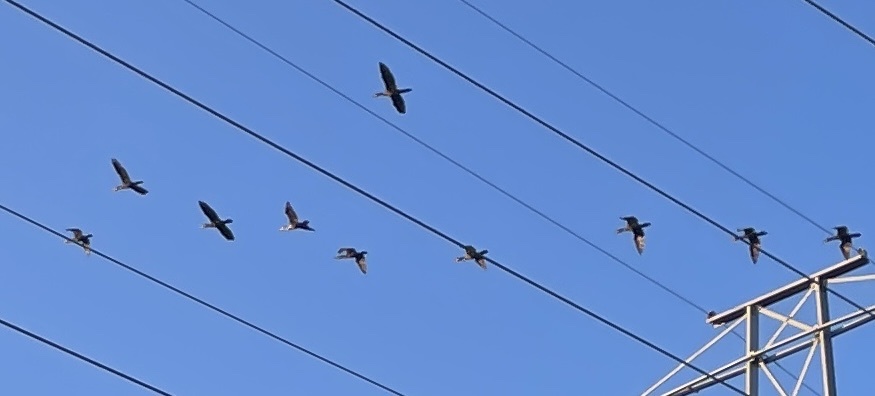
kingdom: Animalia
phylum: Chordata
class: Aves
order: Suliformes
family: Phalacrocoracidae
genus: Phalacrocorax
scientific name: Phalacrocorax auritus
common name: Double-crested cormorant
